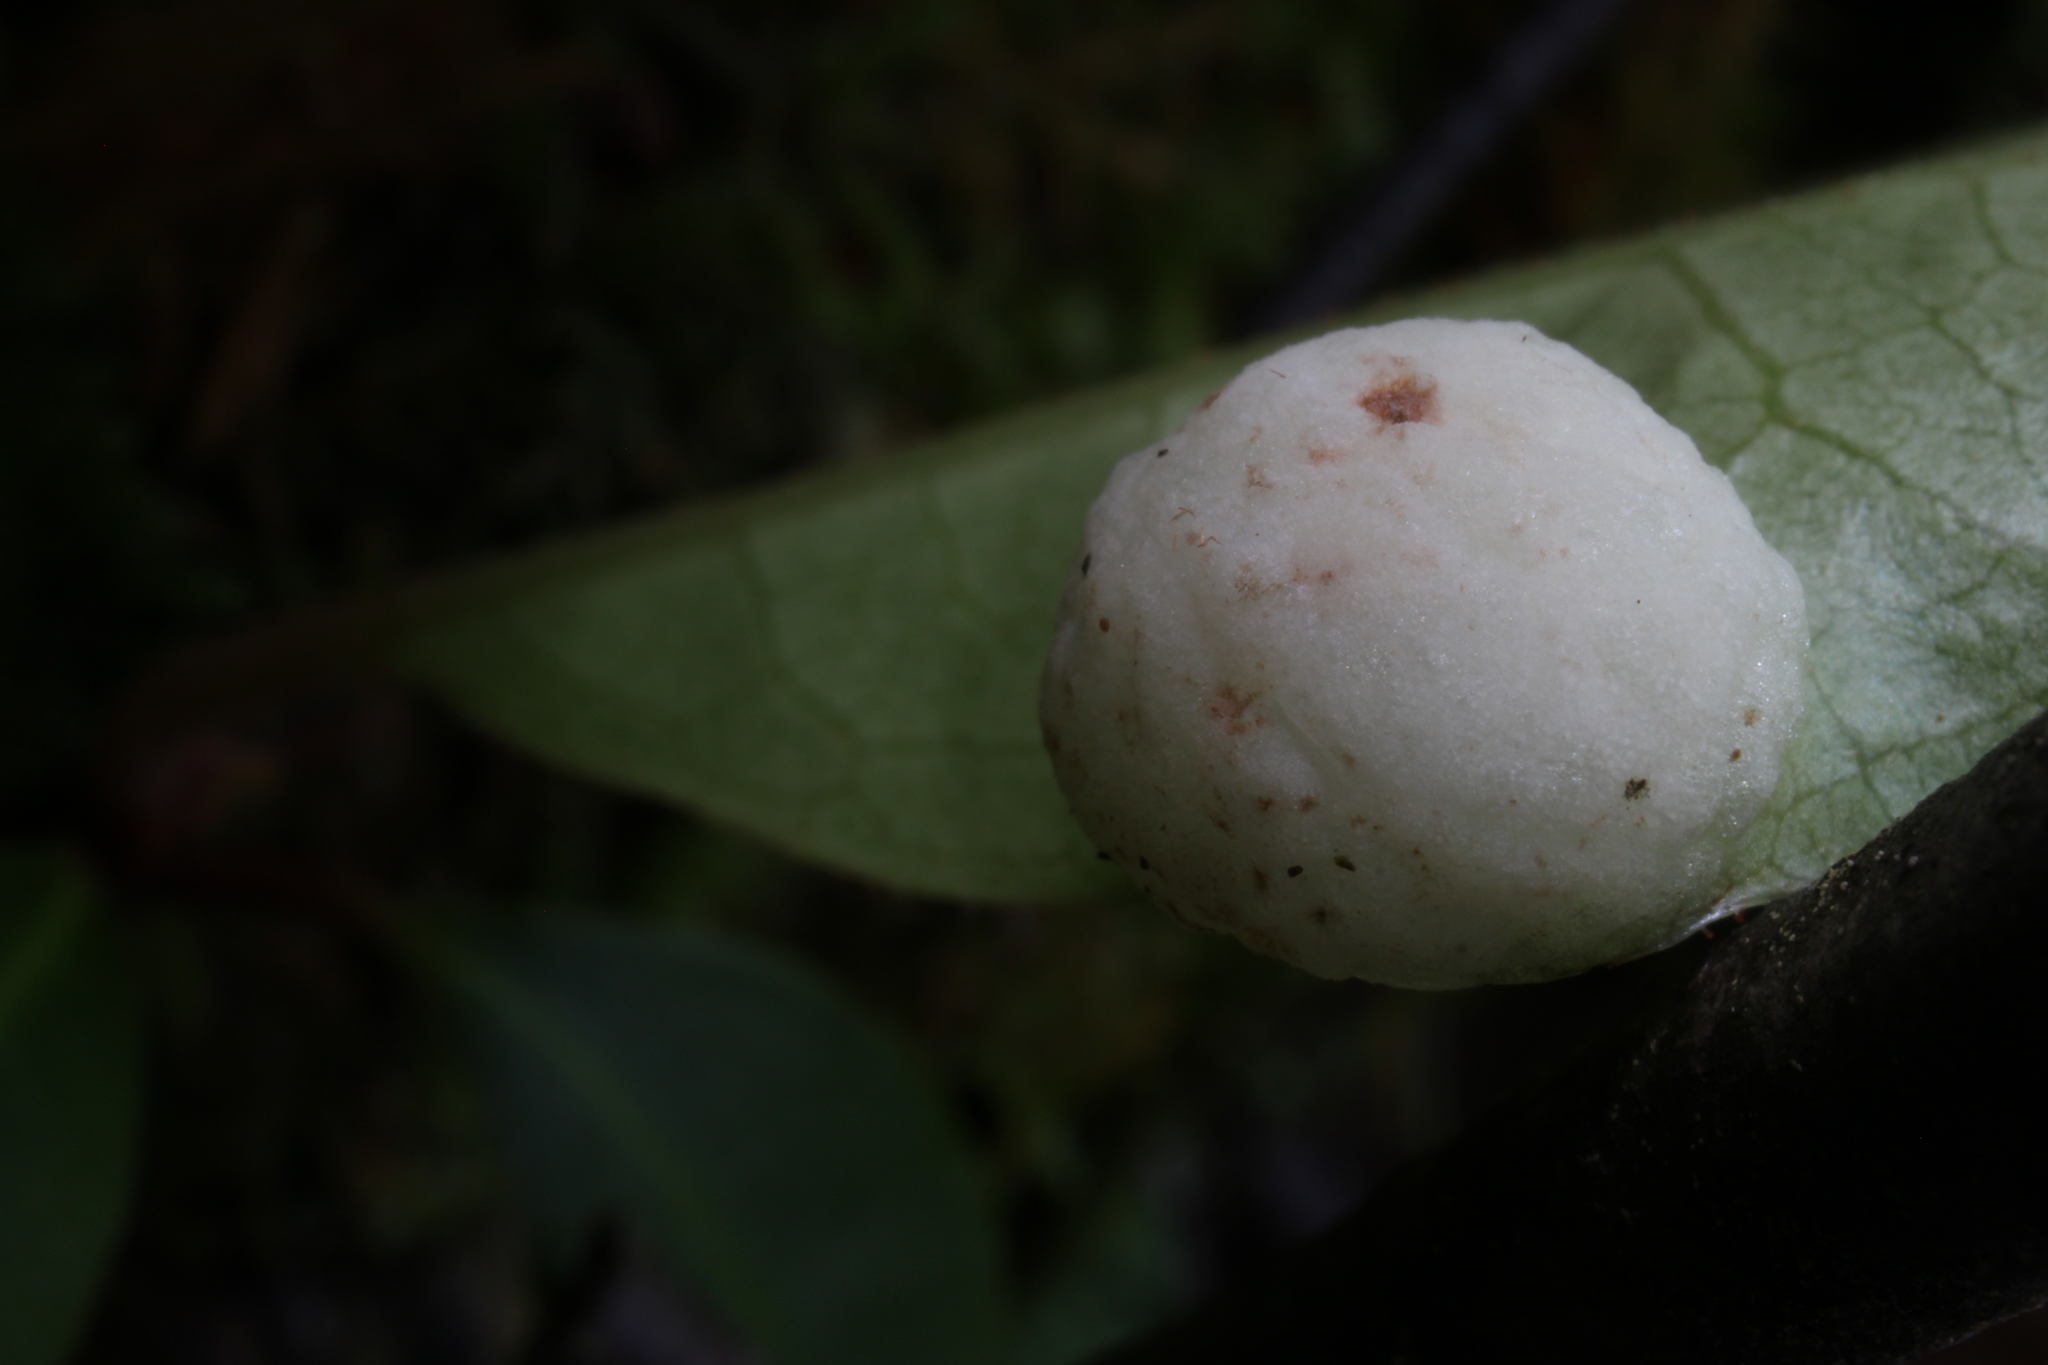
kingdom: Fungi
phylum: Basidiomycota
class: Exobasidiomycetes
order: Exobasidiales
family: Exobasidiaceae
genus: Exobasidium
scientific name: Exobasidium rhododendri
